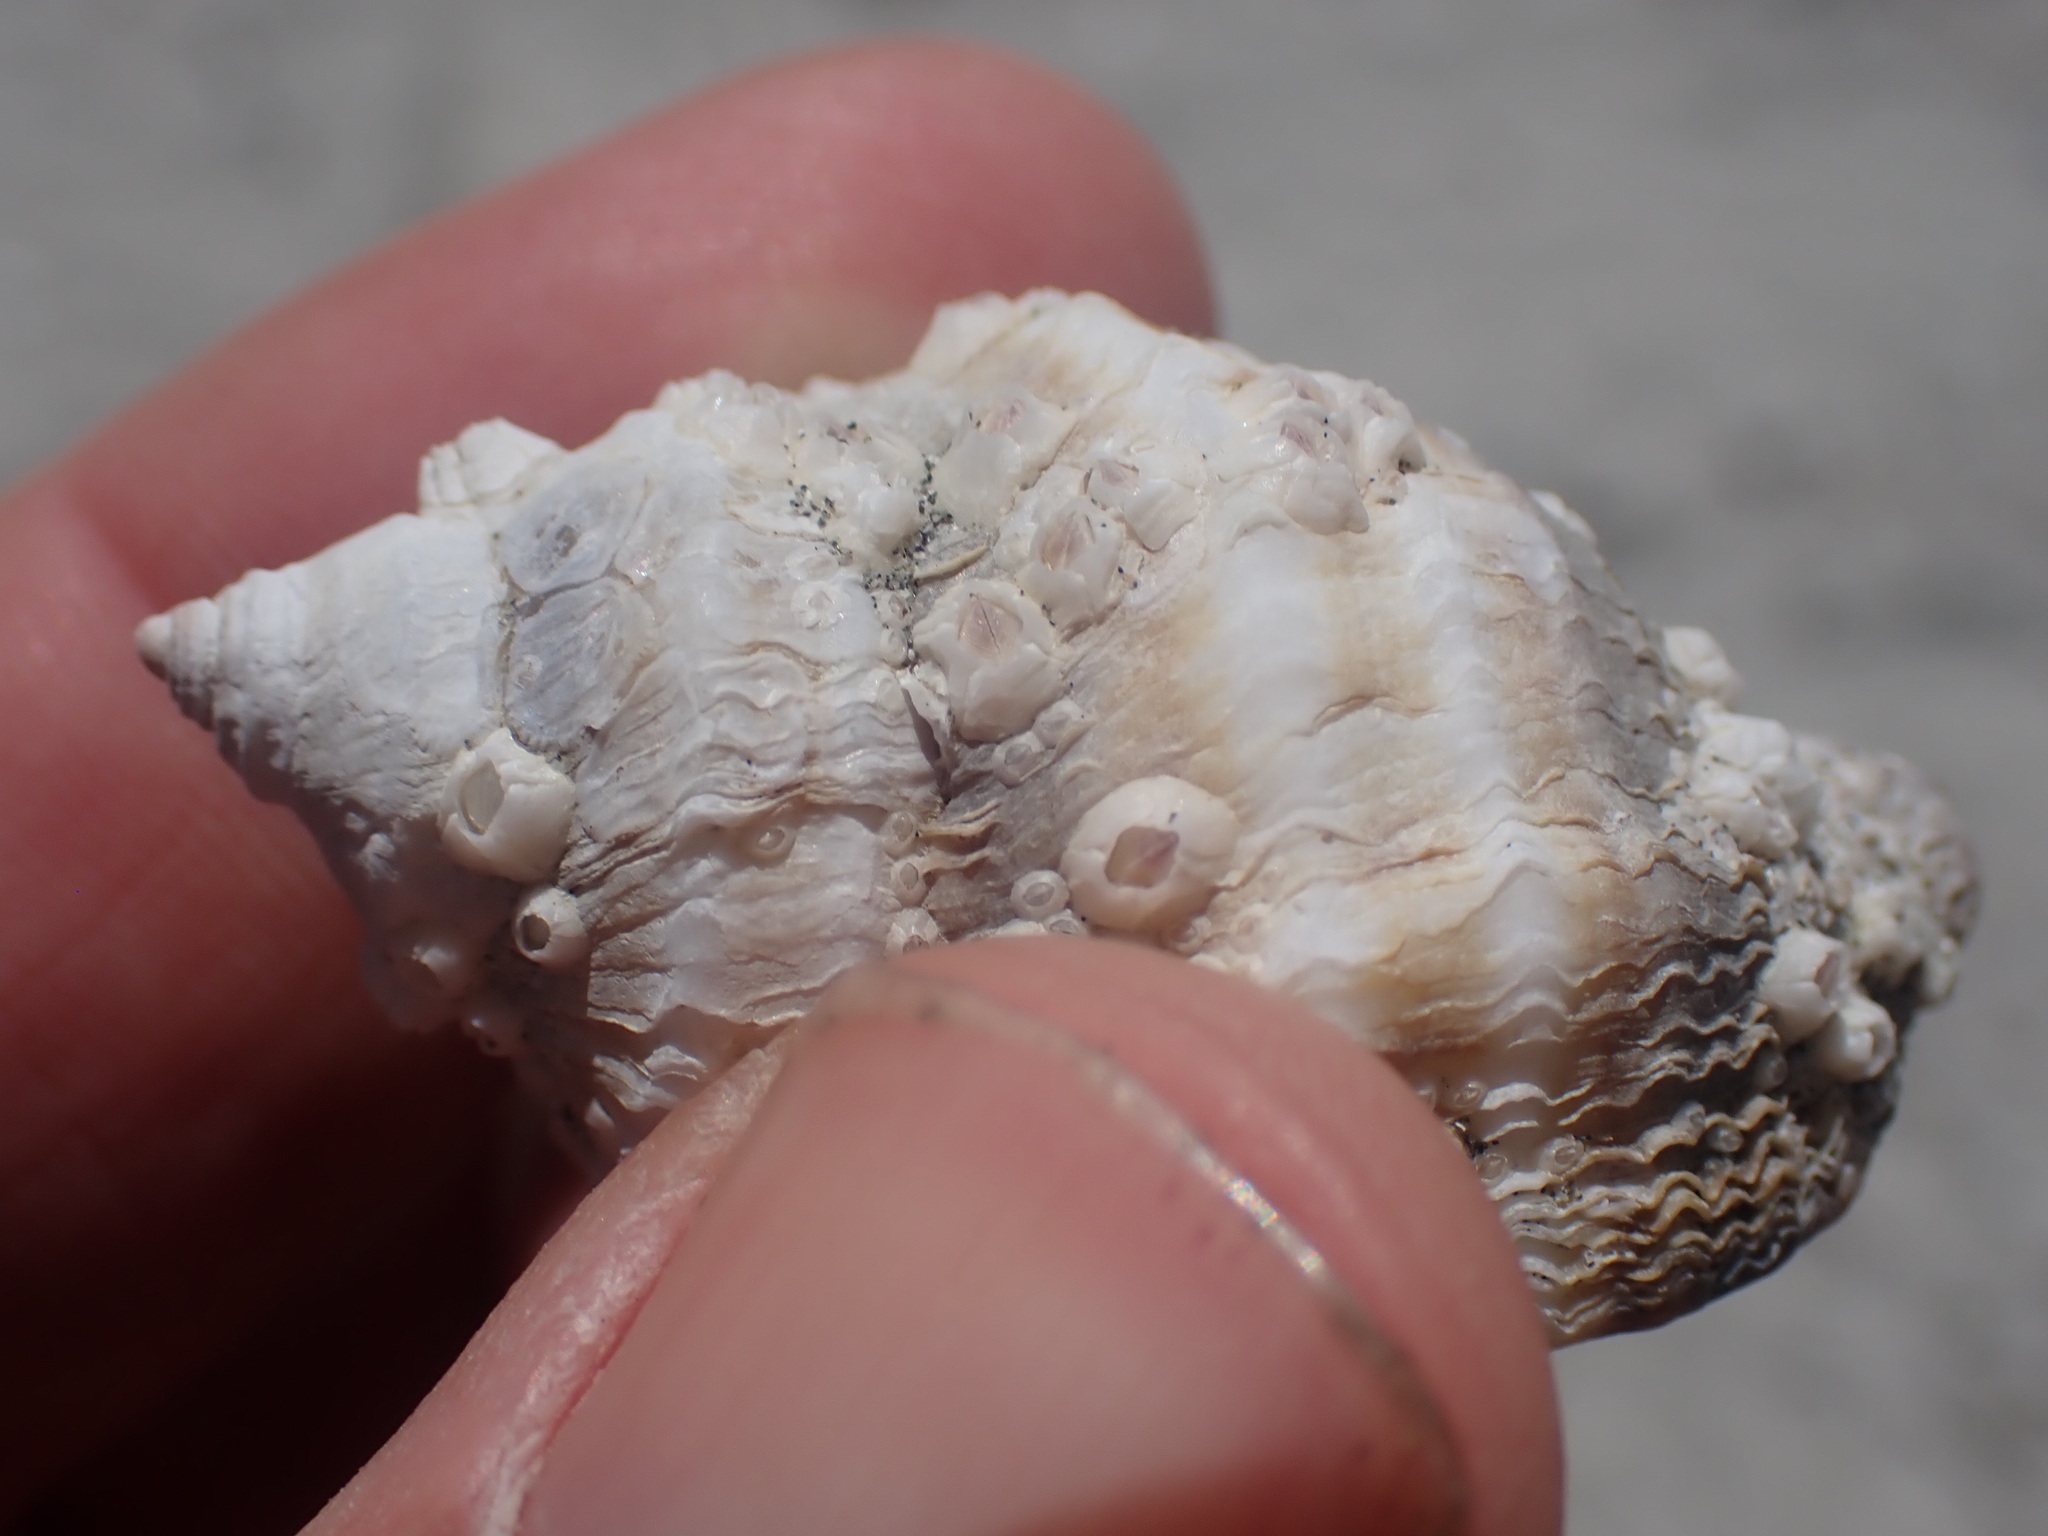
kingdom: Animalia
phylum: Mollusca
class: Gastropoda
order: Neogastropoda
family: Muricidae
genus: Nucella
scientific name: Nucella lamellosa
